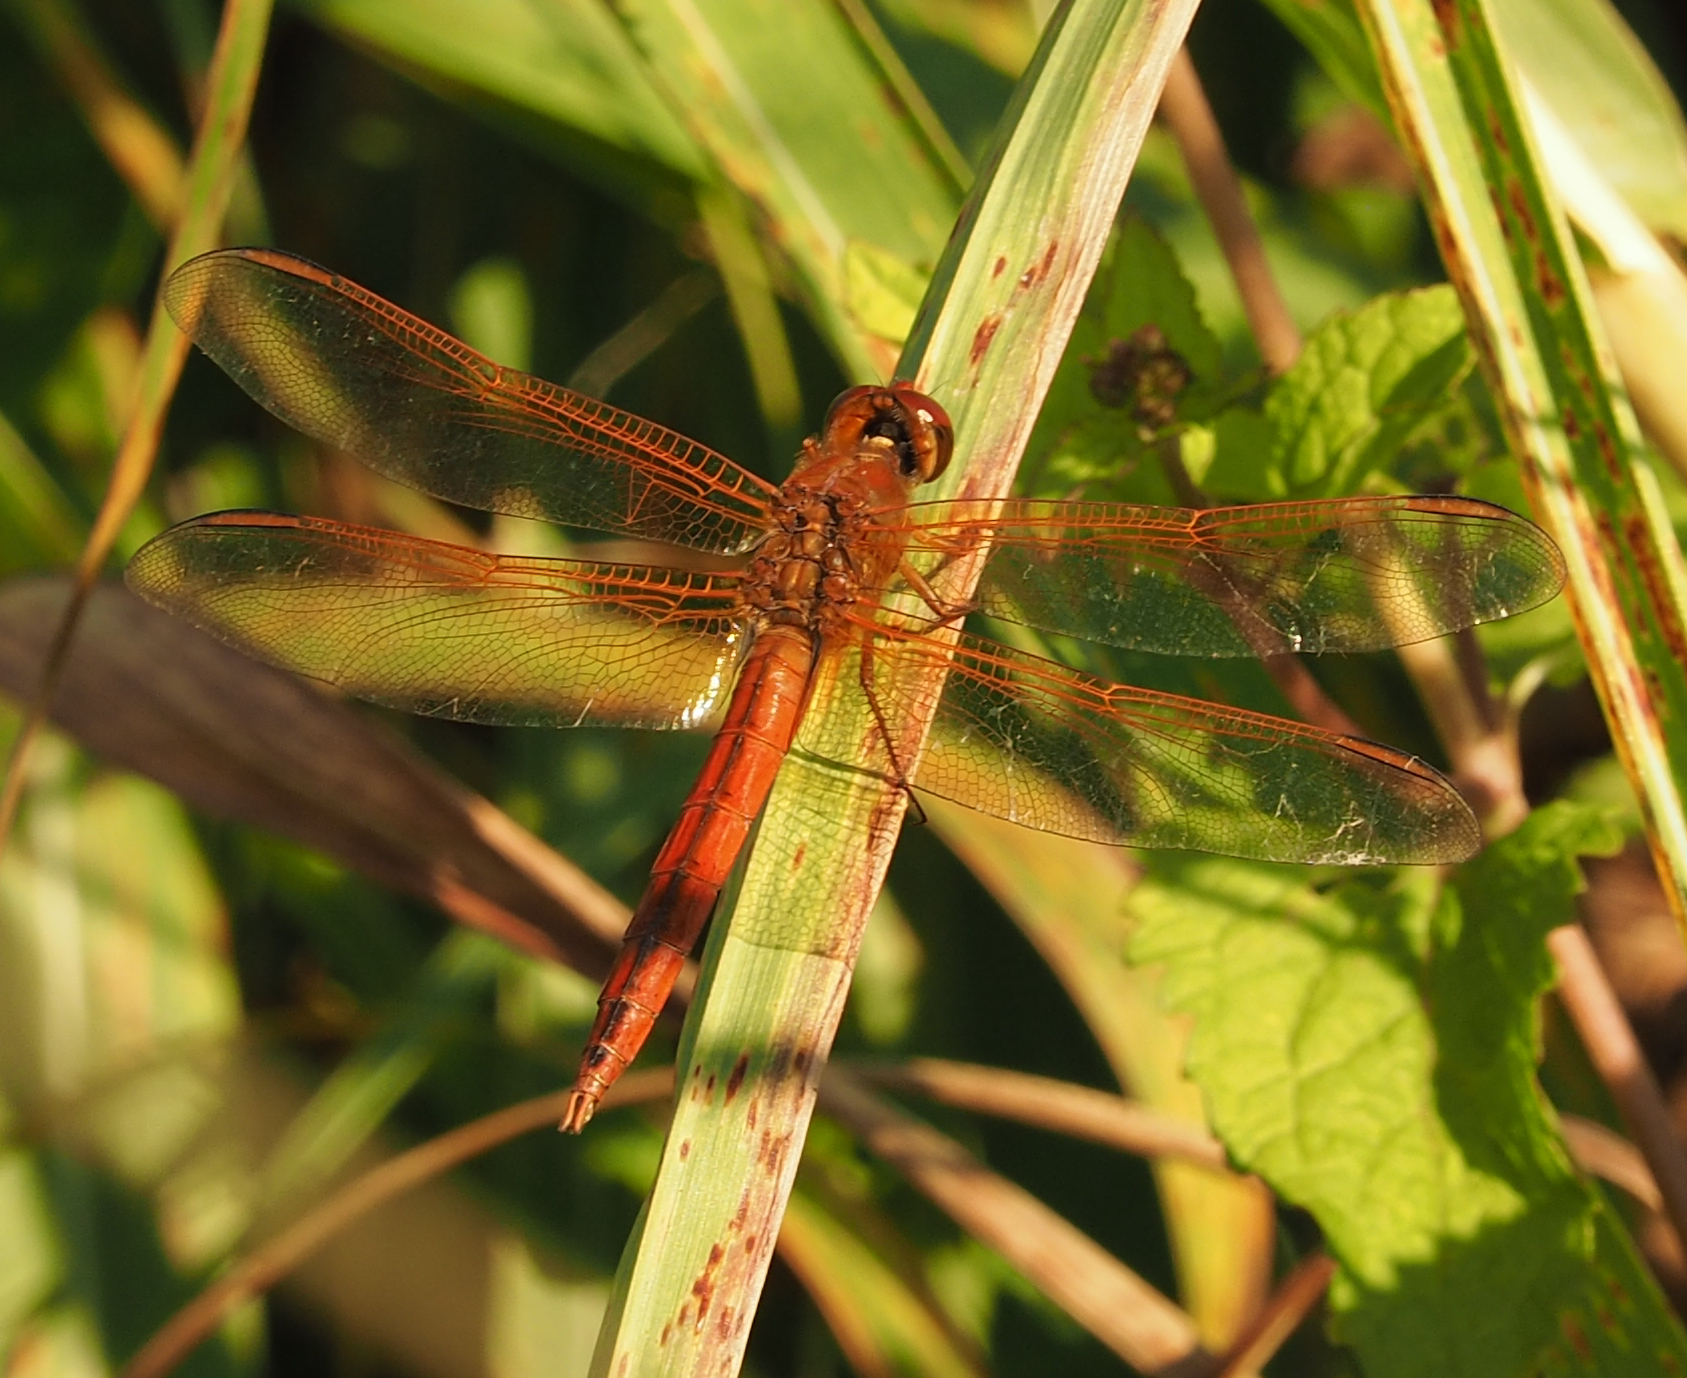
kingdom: Animalia
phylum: Arthropoda
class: Insecta
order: Odonata
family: Libellulidae
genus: Libellula
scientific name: Libellula needhami
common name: Needham's skimmer
